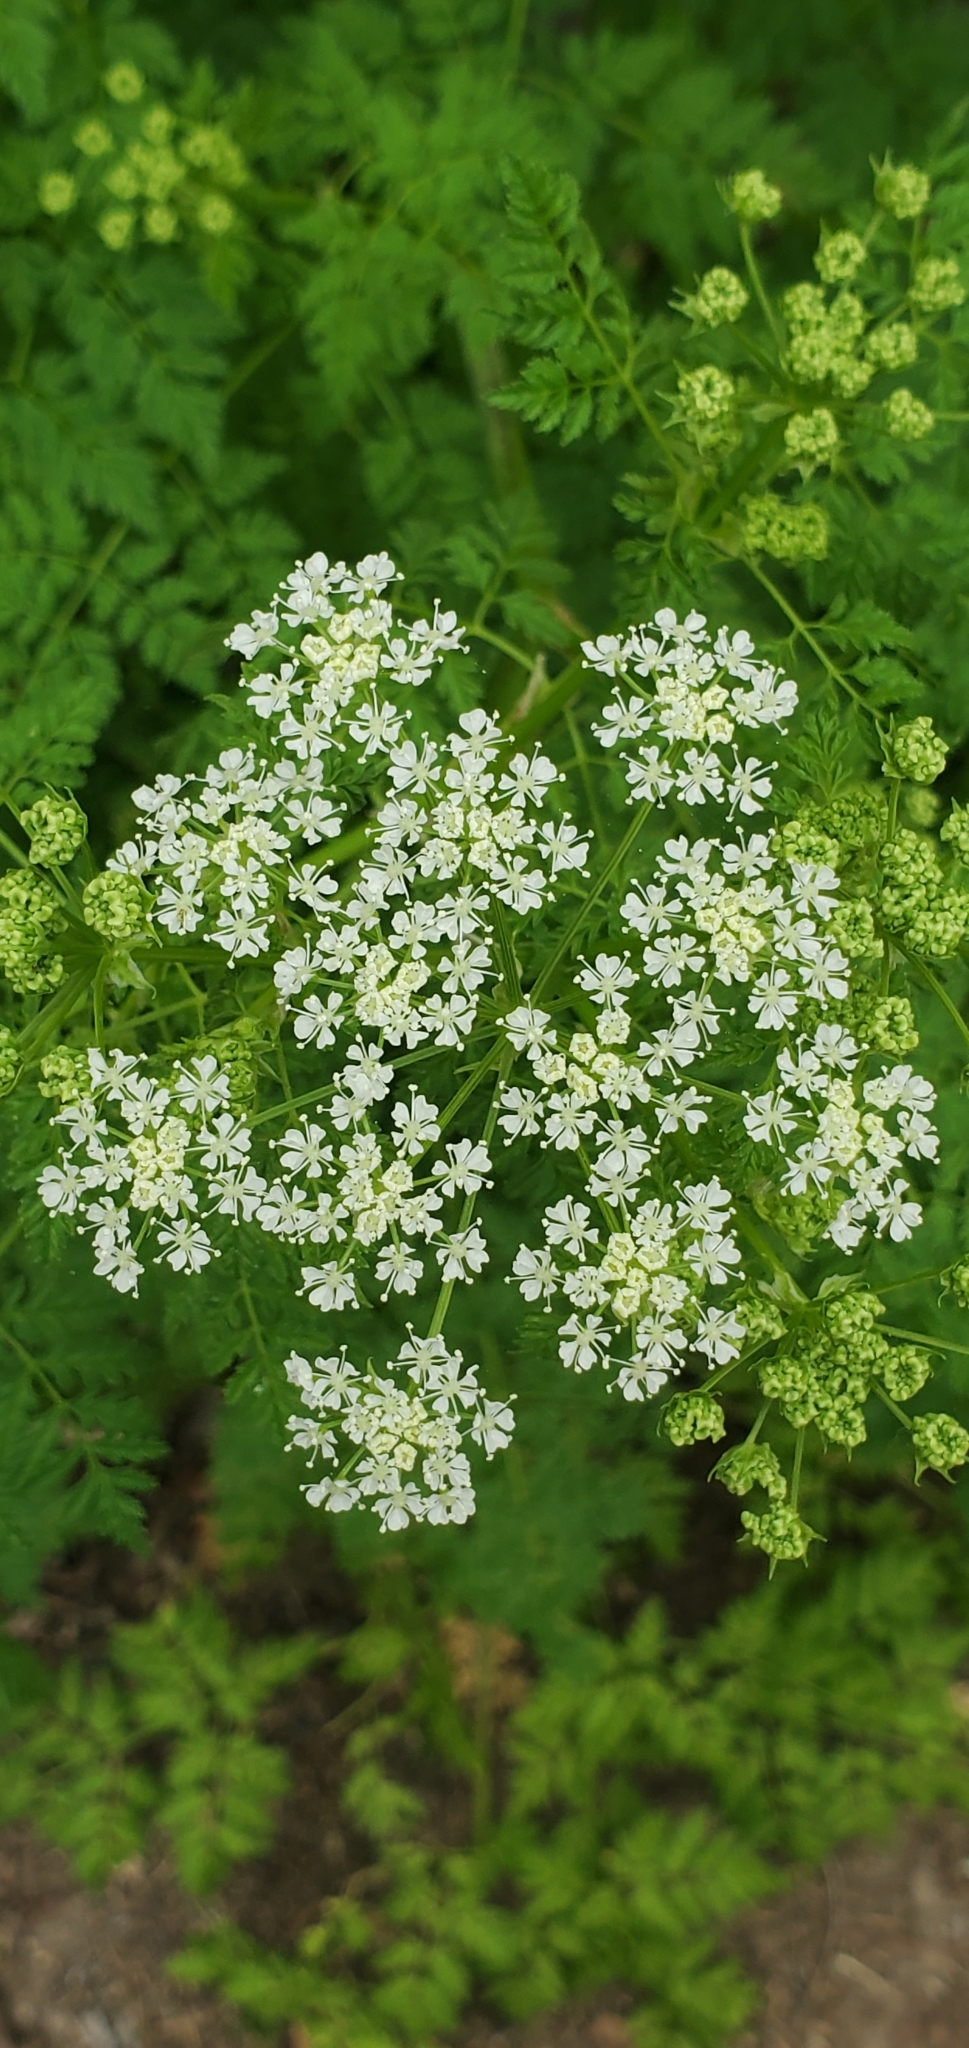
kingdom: Plantae
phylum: Tracheophyta
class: Magnoliopsida
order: Apiales
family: Apiaceae
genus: Conium
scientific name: Conium maculatum
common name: Hemlock
